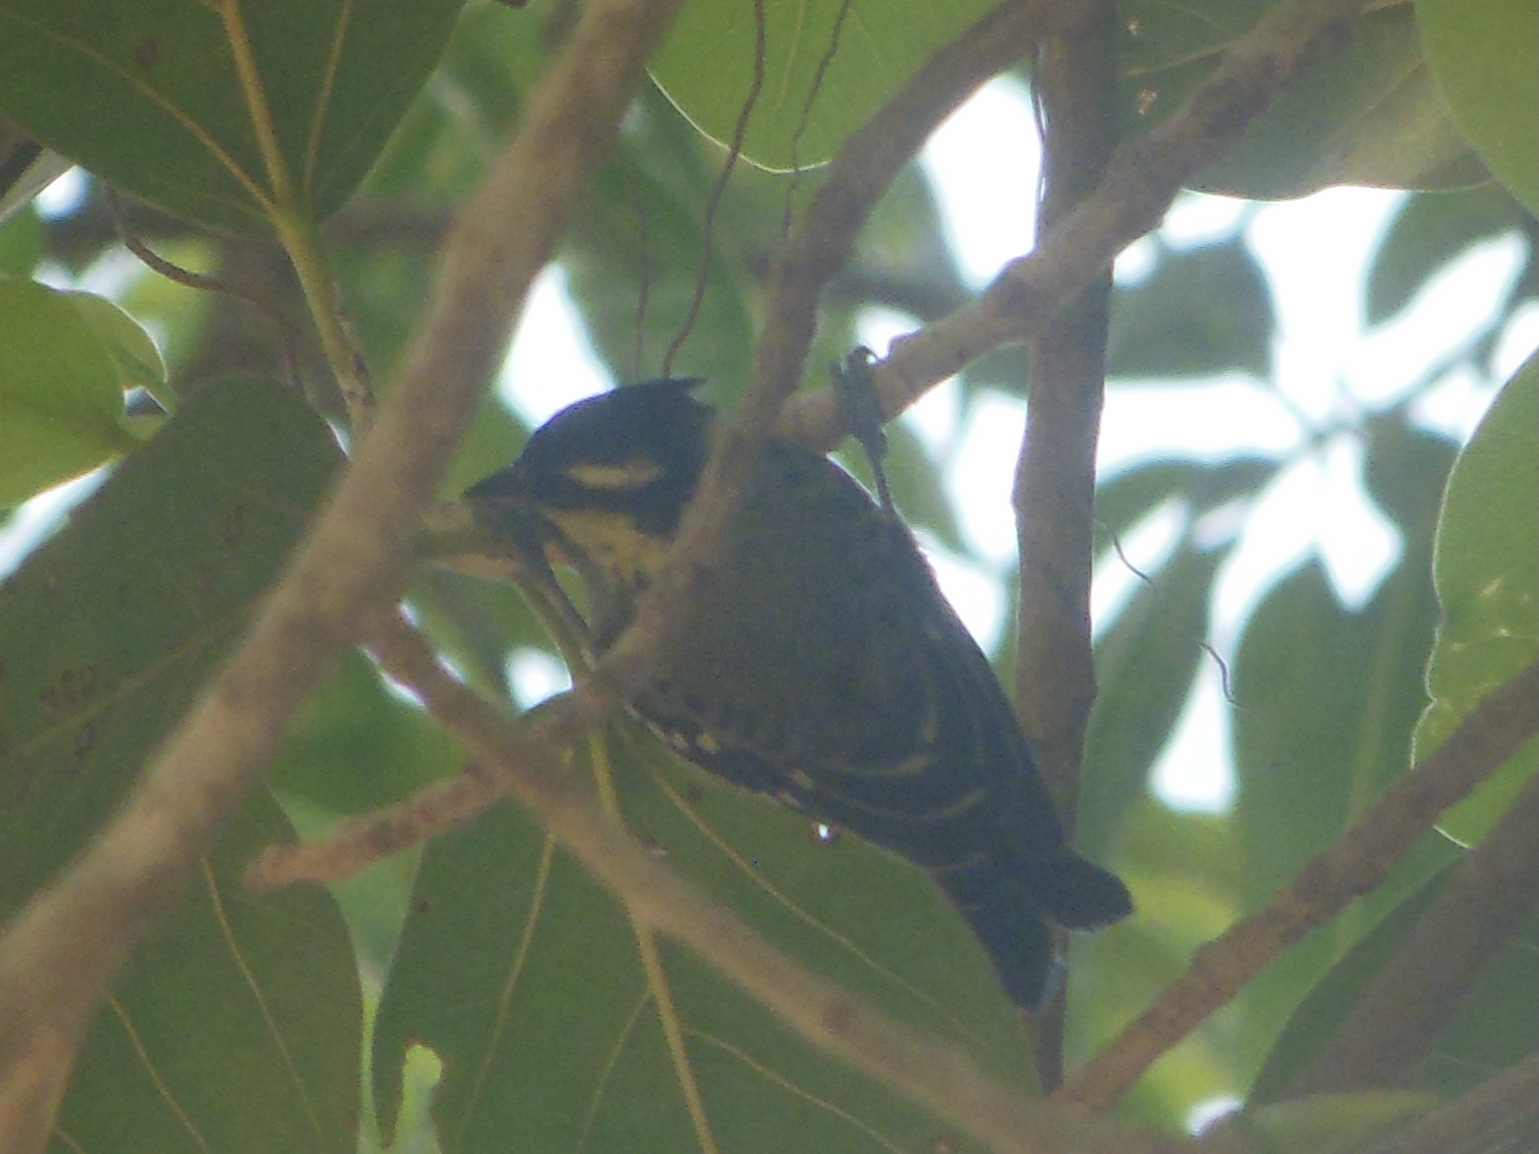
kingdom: Animalia
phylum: Chordata
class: Aves
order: Passeriformes
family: Paridae
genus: Parus
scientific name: Parus aplonotus
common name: Indian black-lored tit
